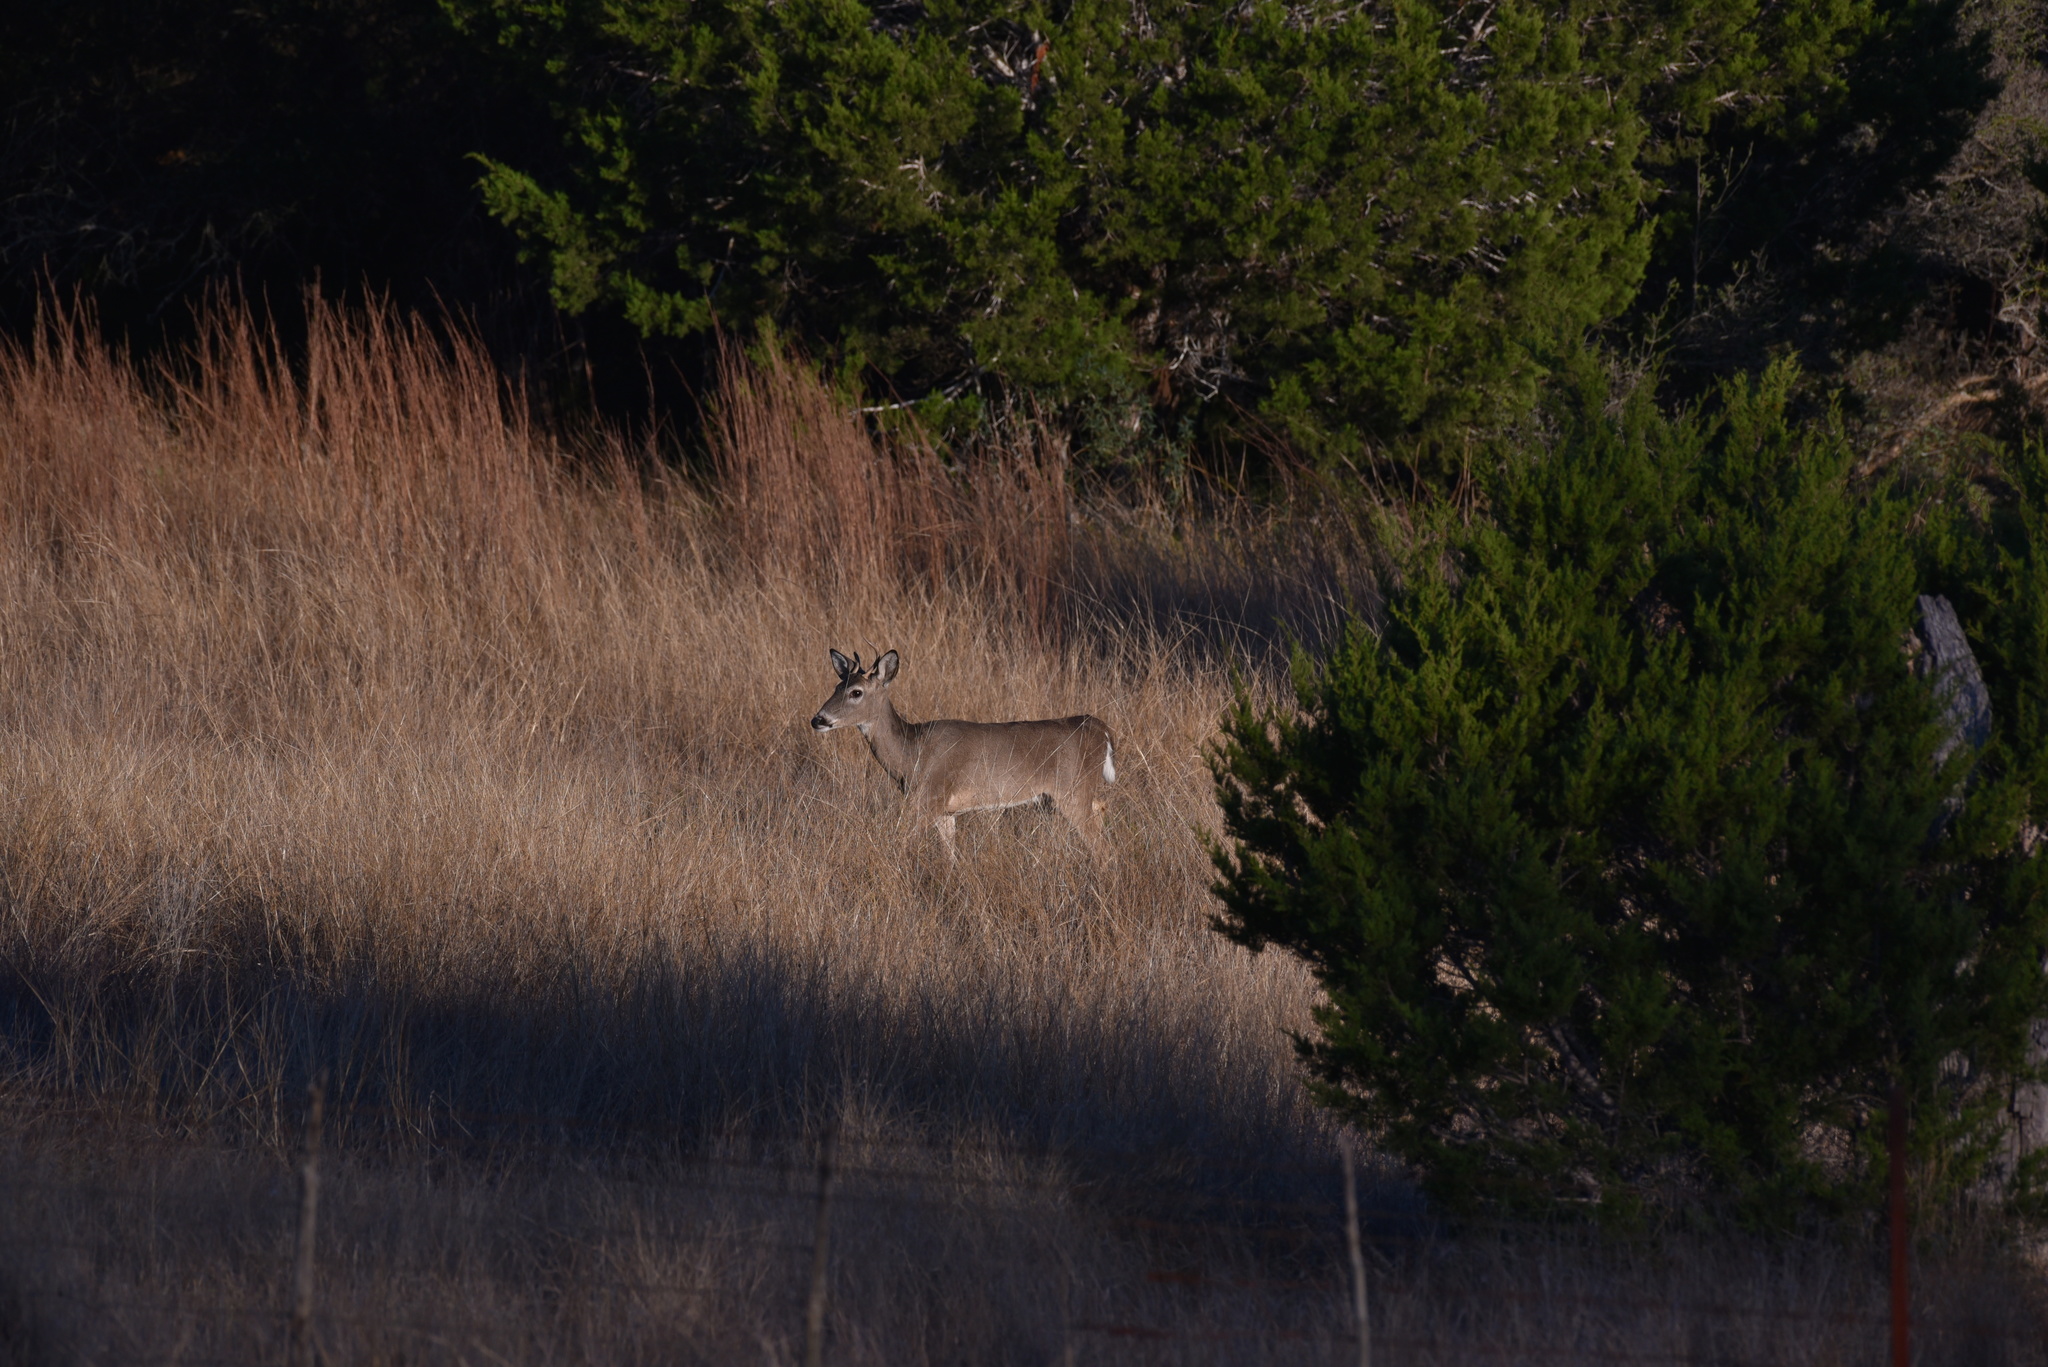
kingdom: Animalia
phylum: Chordata
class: Mammalia
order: Artiodactyla
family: Cervidae
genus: Odocoileus
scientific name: Odocoileus virginianus
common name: White-tailed deer
